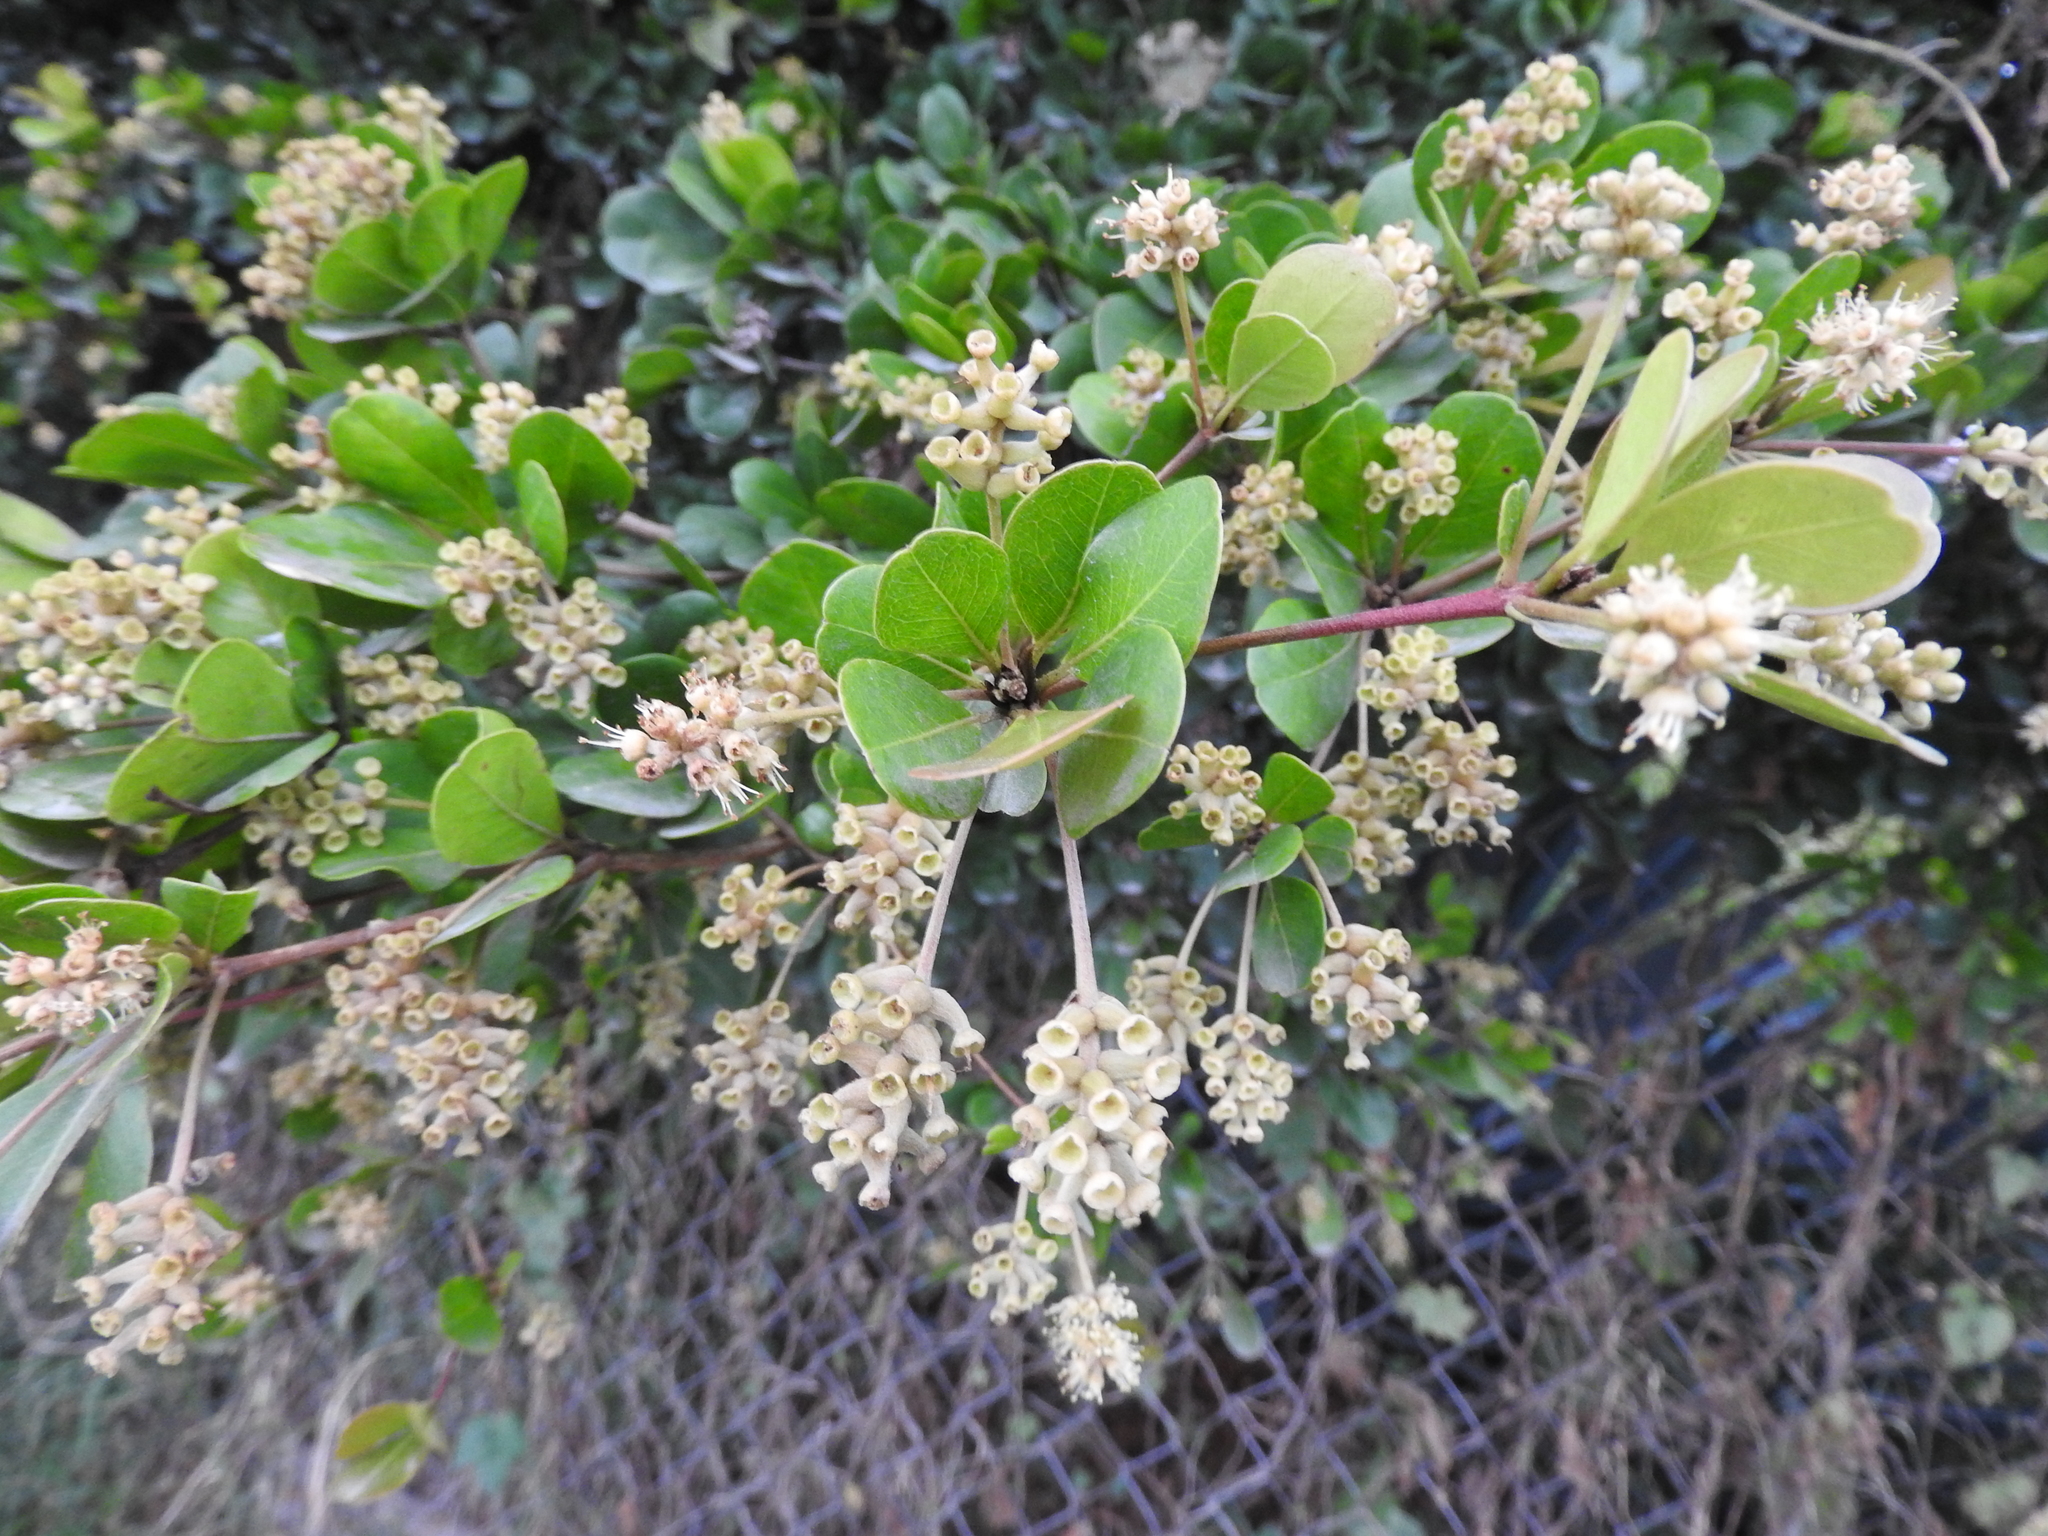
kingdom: Plantae
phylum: Tracheophyta
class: Magnoliopsida
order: Myrtales
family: Combretaceae
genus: Terminalia
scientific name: Terminalia buceras
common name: Black-olive
